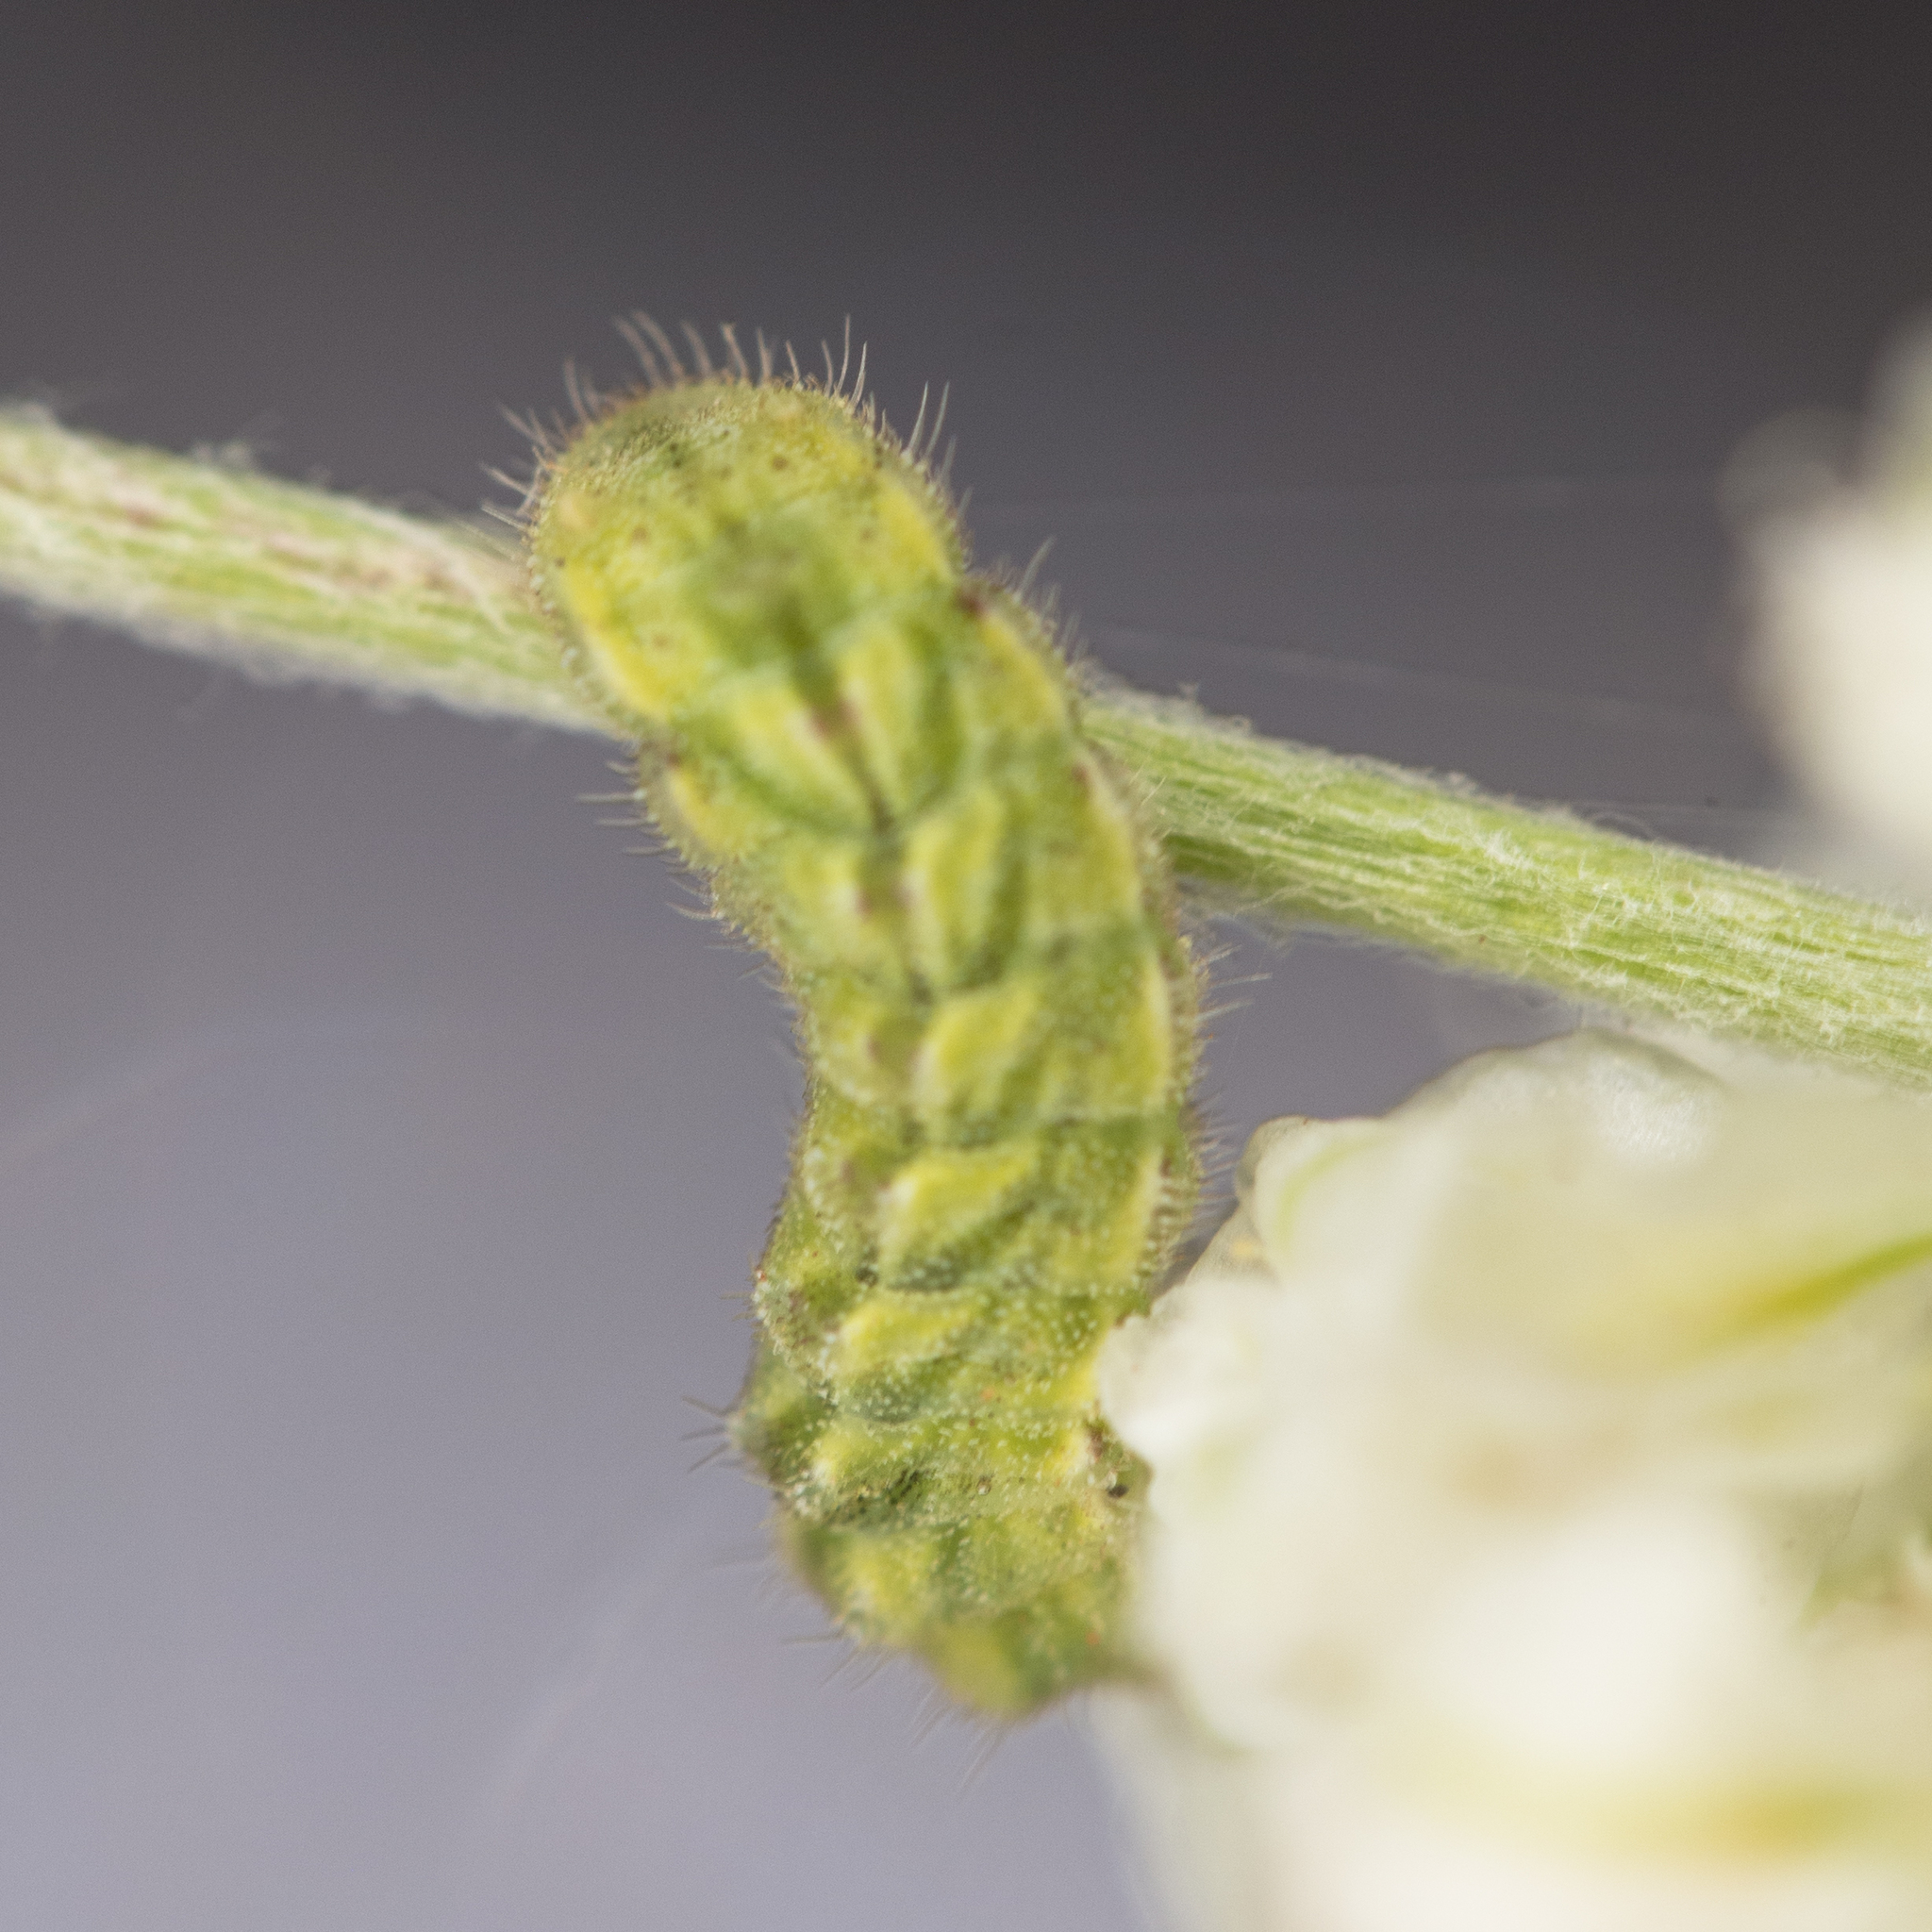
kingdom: Animalia
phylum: Arthropoda
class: Insecta
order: Lepidoptera
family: Lycaenidae
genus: Echinargus
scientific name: Echinargus isola
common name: Reakirt's blue
